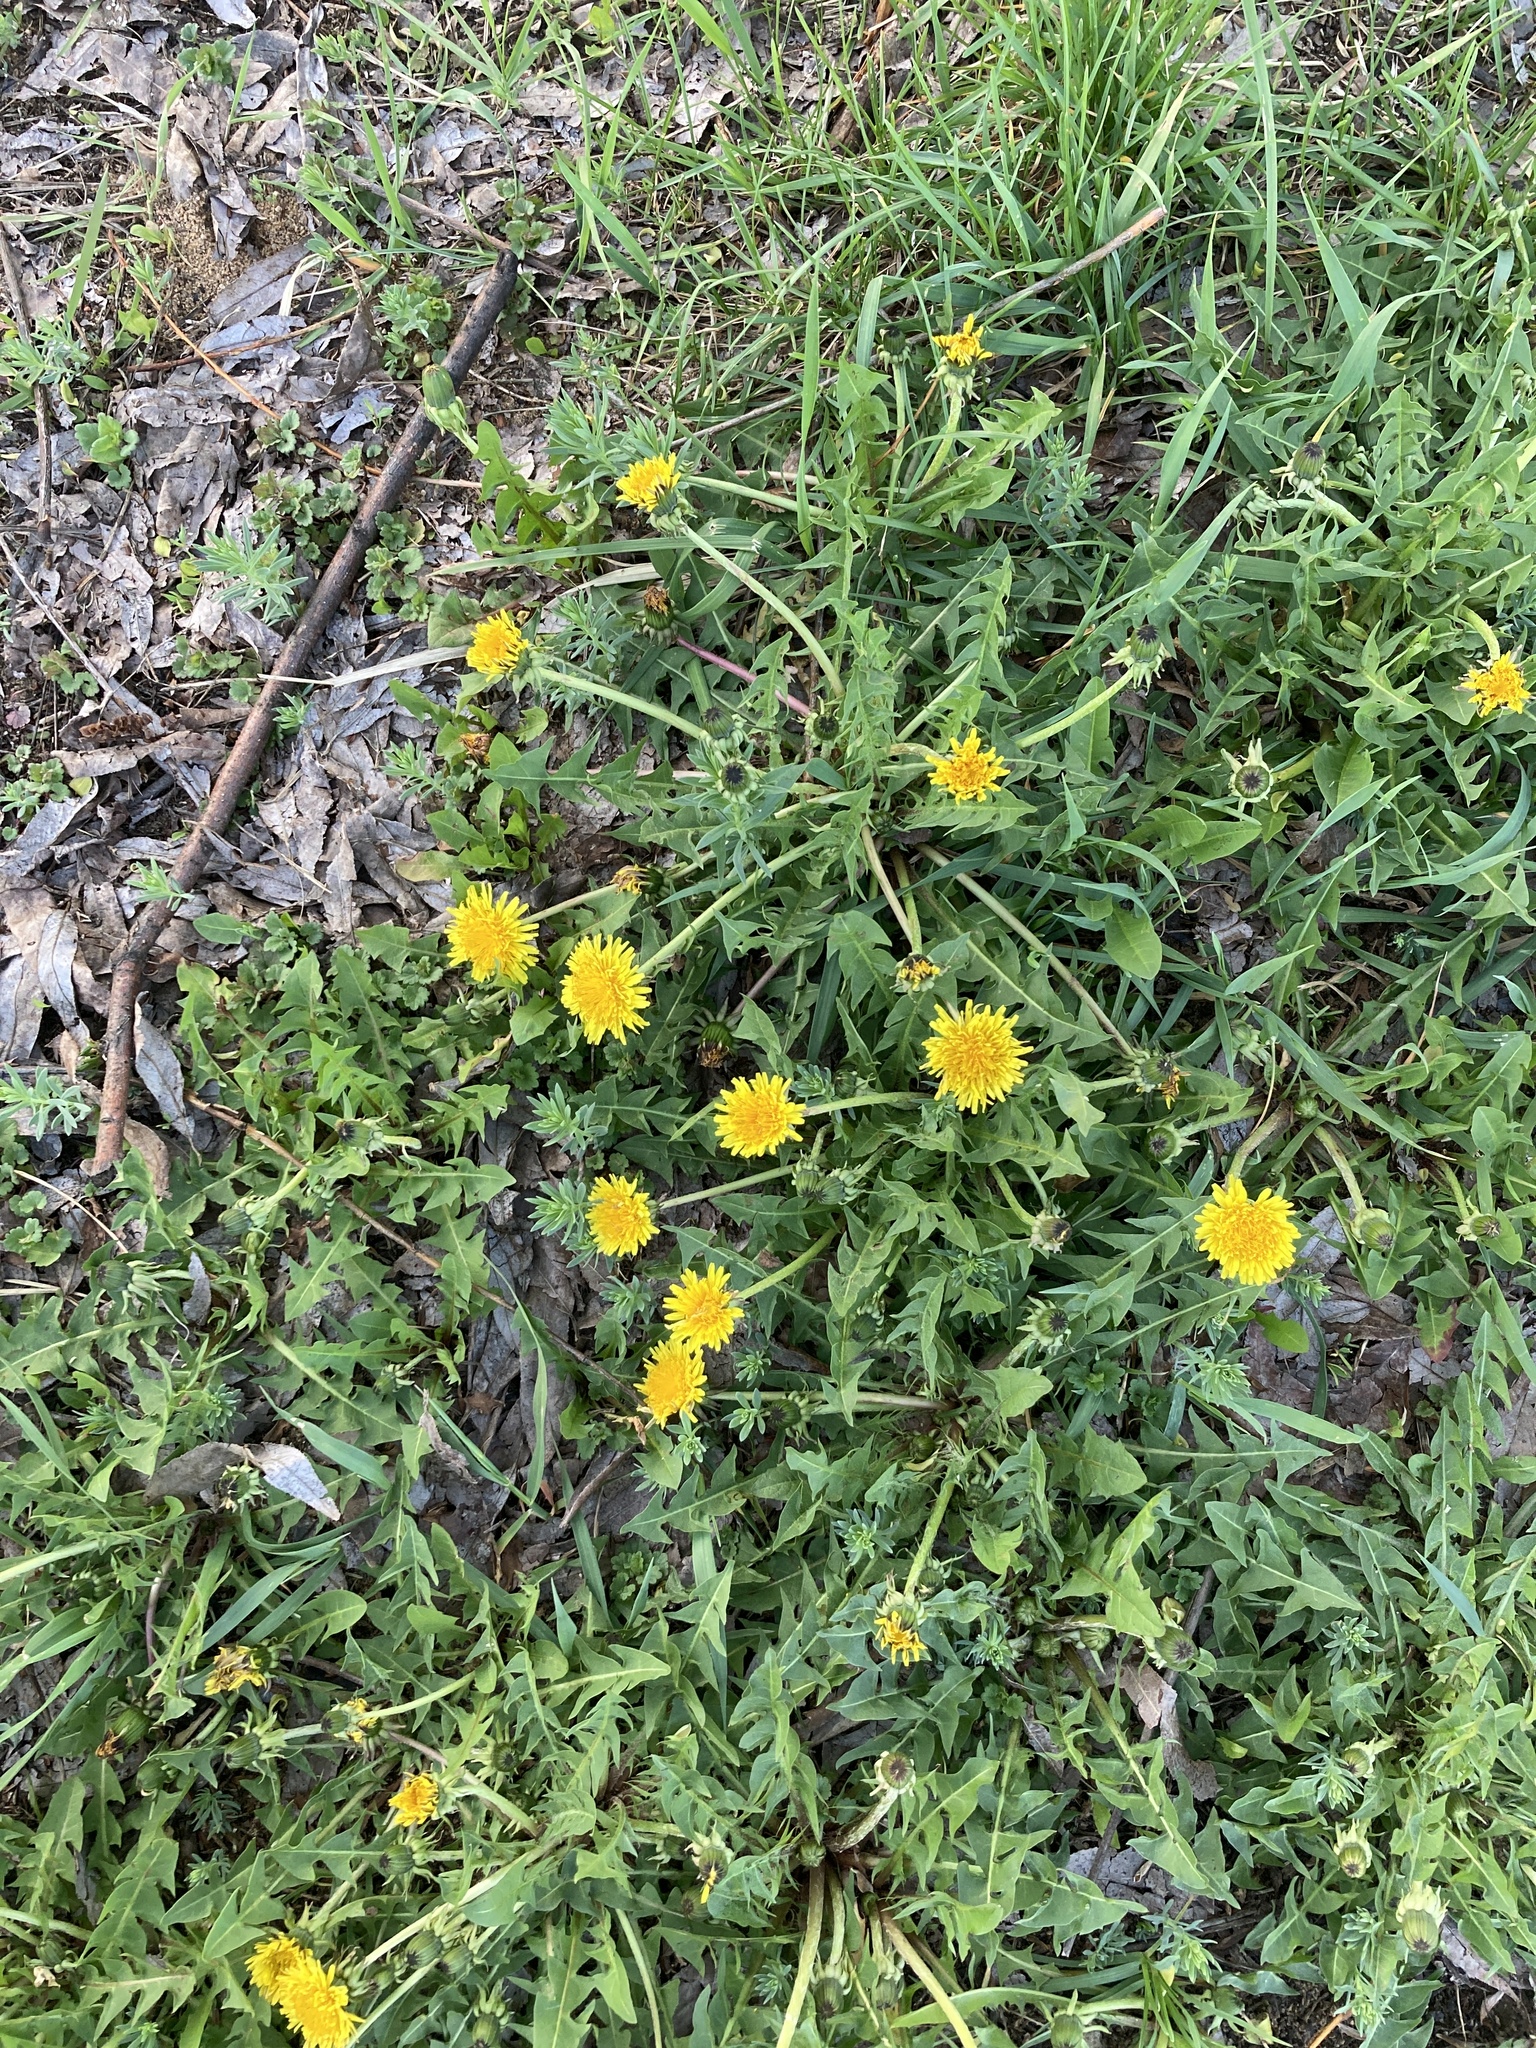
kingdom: Plantae
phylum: Tracheophyta
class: Magnoliopsida
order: Asterales
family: Asteraceae
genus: Taraxacum
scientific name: Taraxacum officinale
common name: Common dandelion
